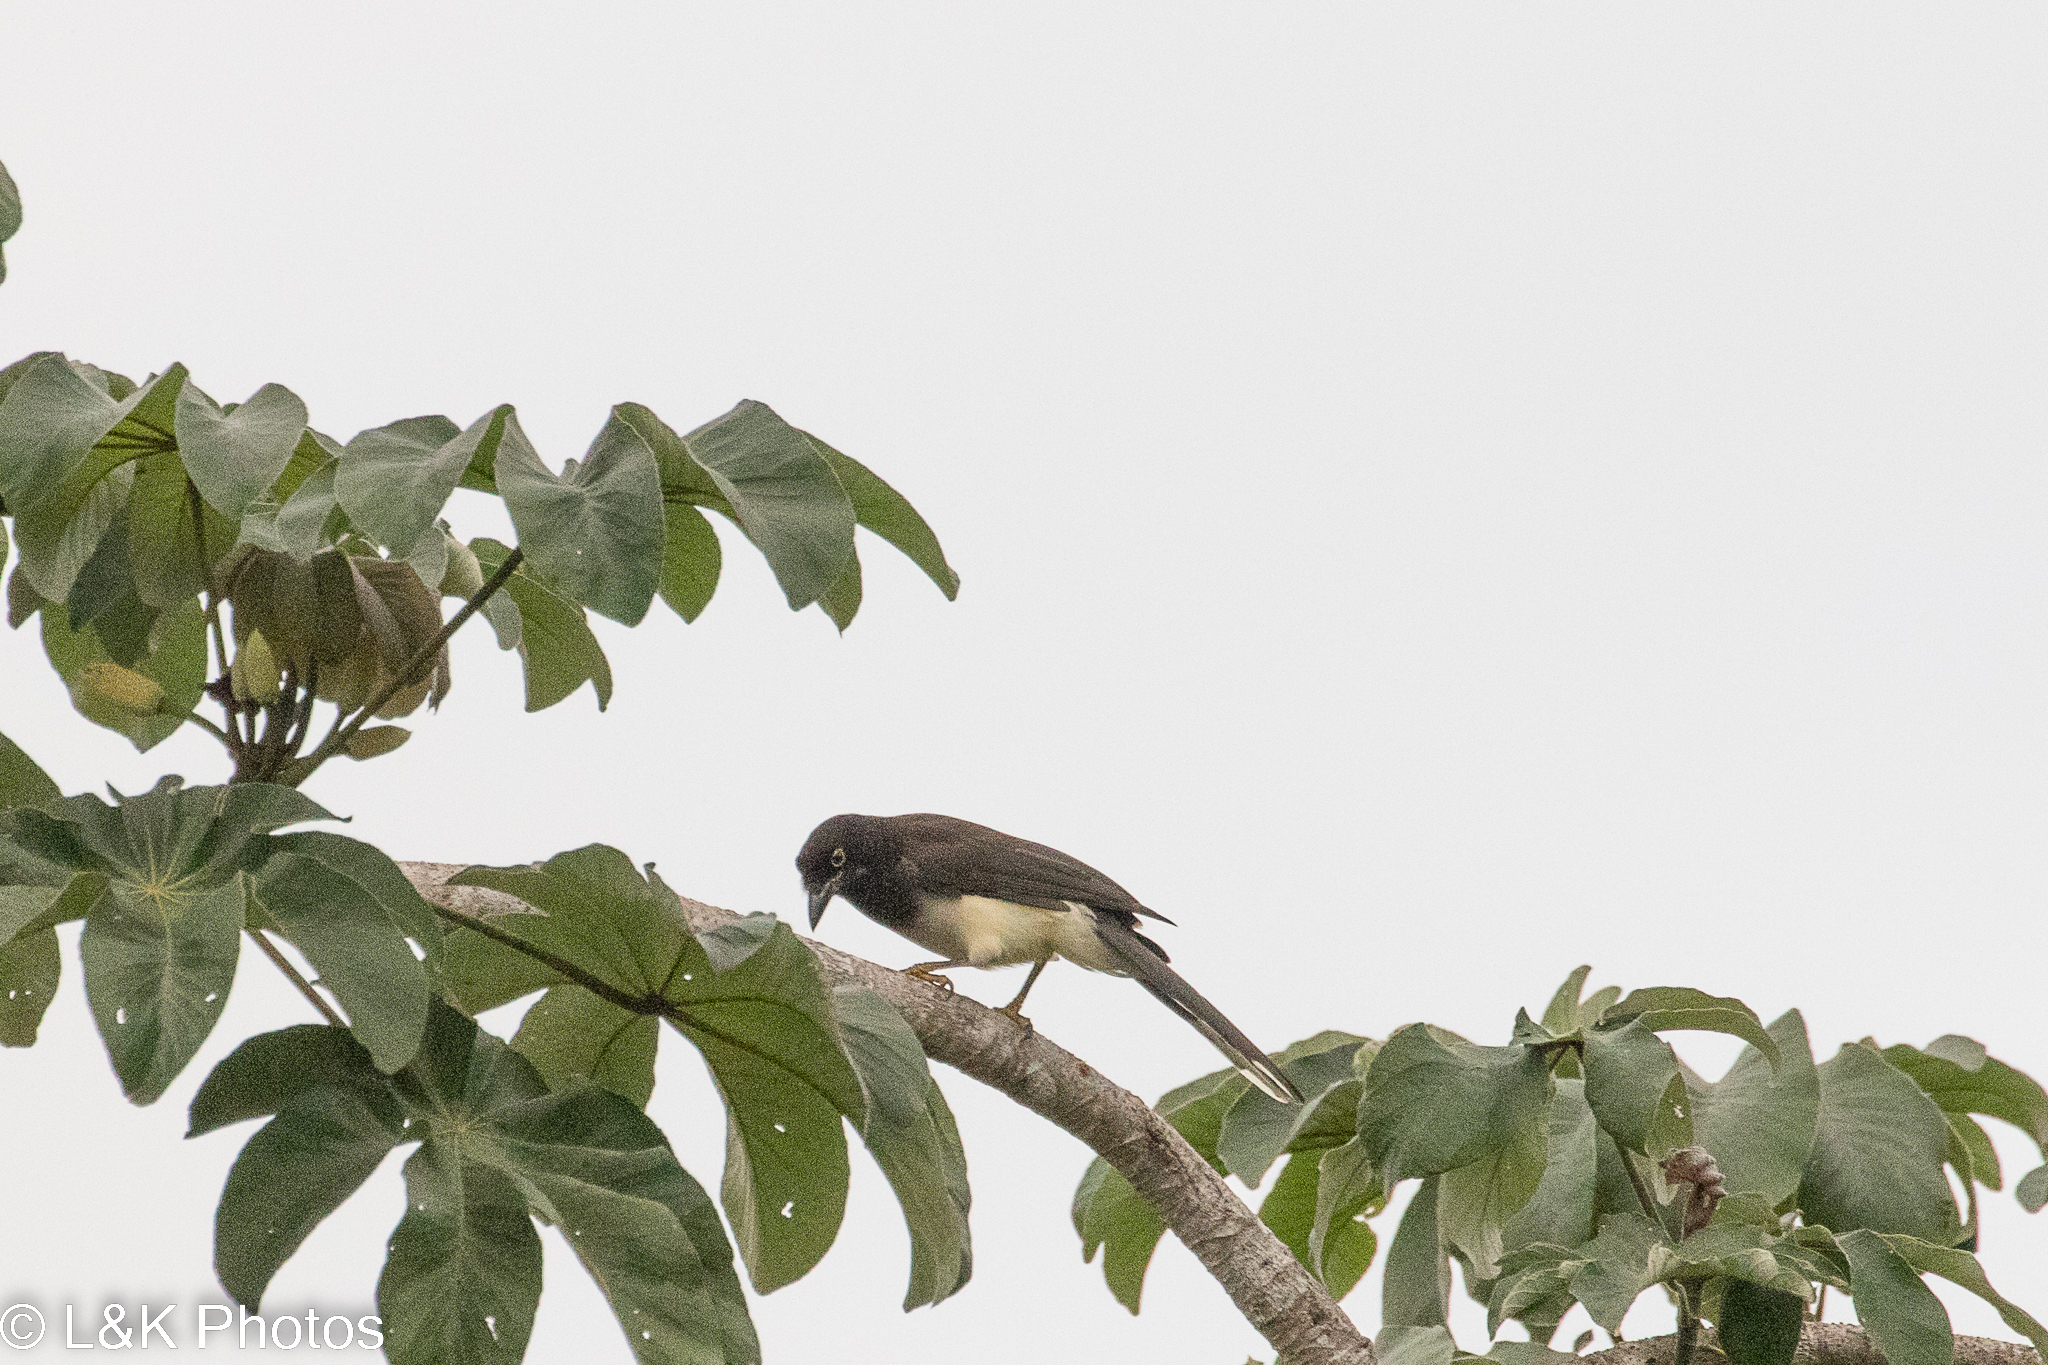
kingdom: Animalia
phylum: Chordata
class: Aves
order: Passeriformes
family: Corvidae
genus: Psilorhinus
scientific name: Psilorhinus morio
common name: Brown jay
